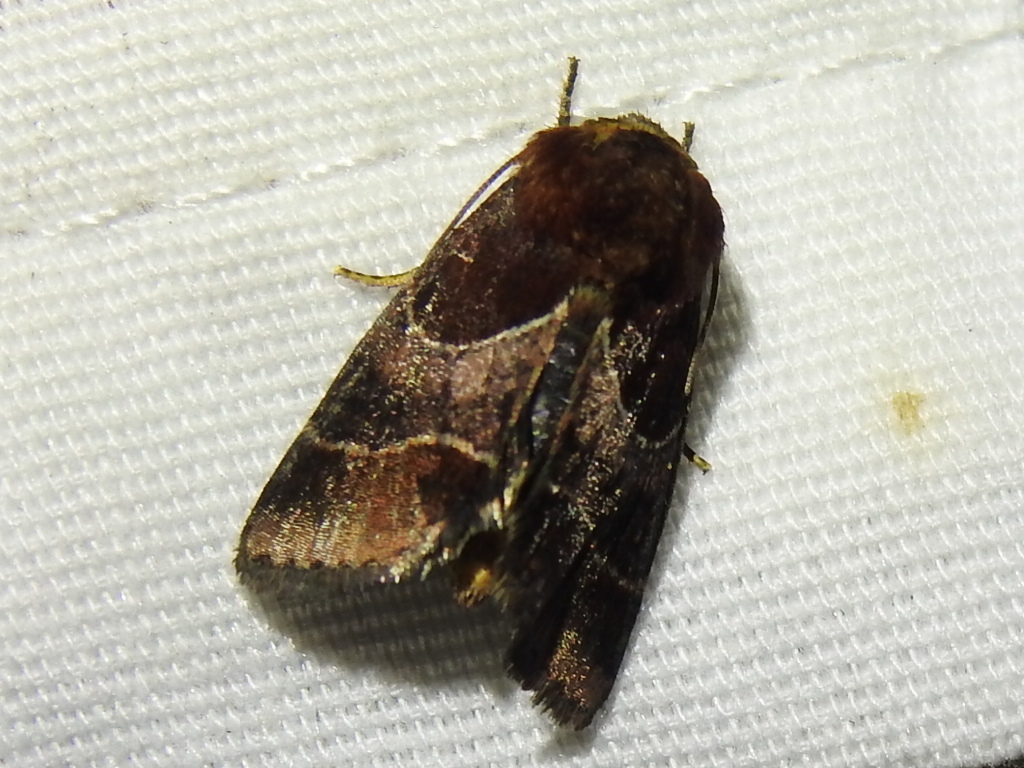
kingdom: Animalia
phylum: Arthropoda
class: Insecta
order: Lepidoptera
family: Noctuidae
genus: Schinia
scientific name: Schinia arcigera
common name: Arcigera flower moth
